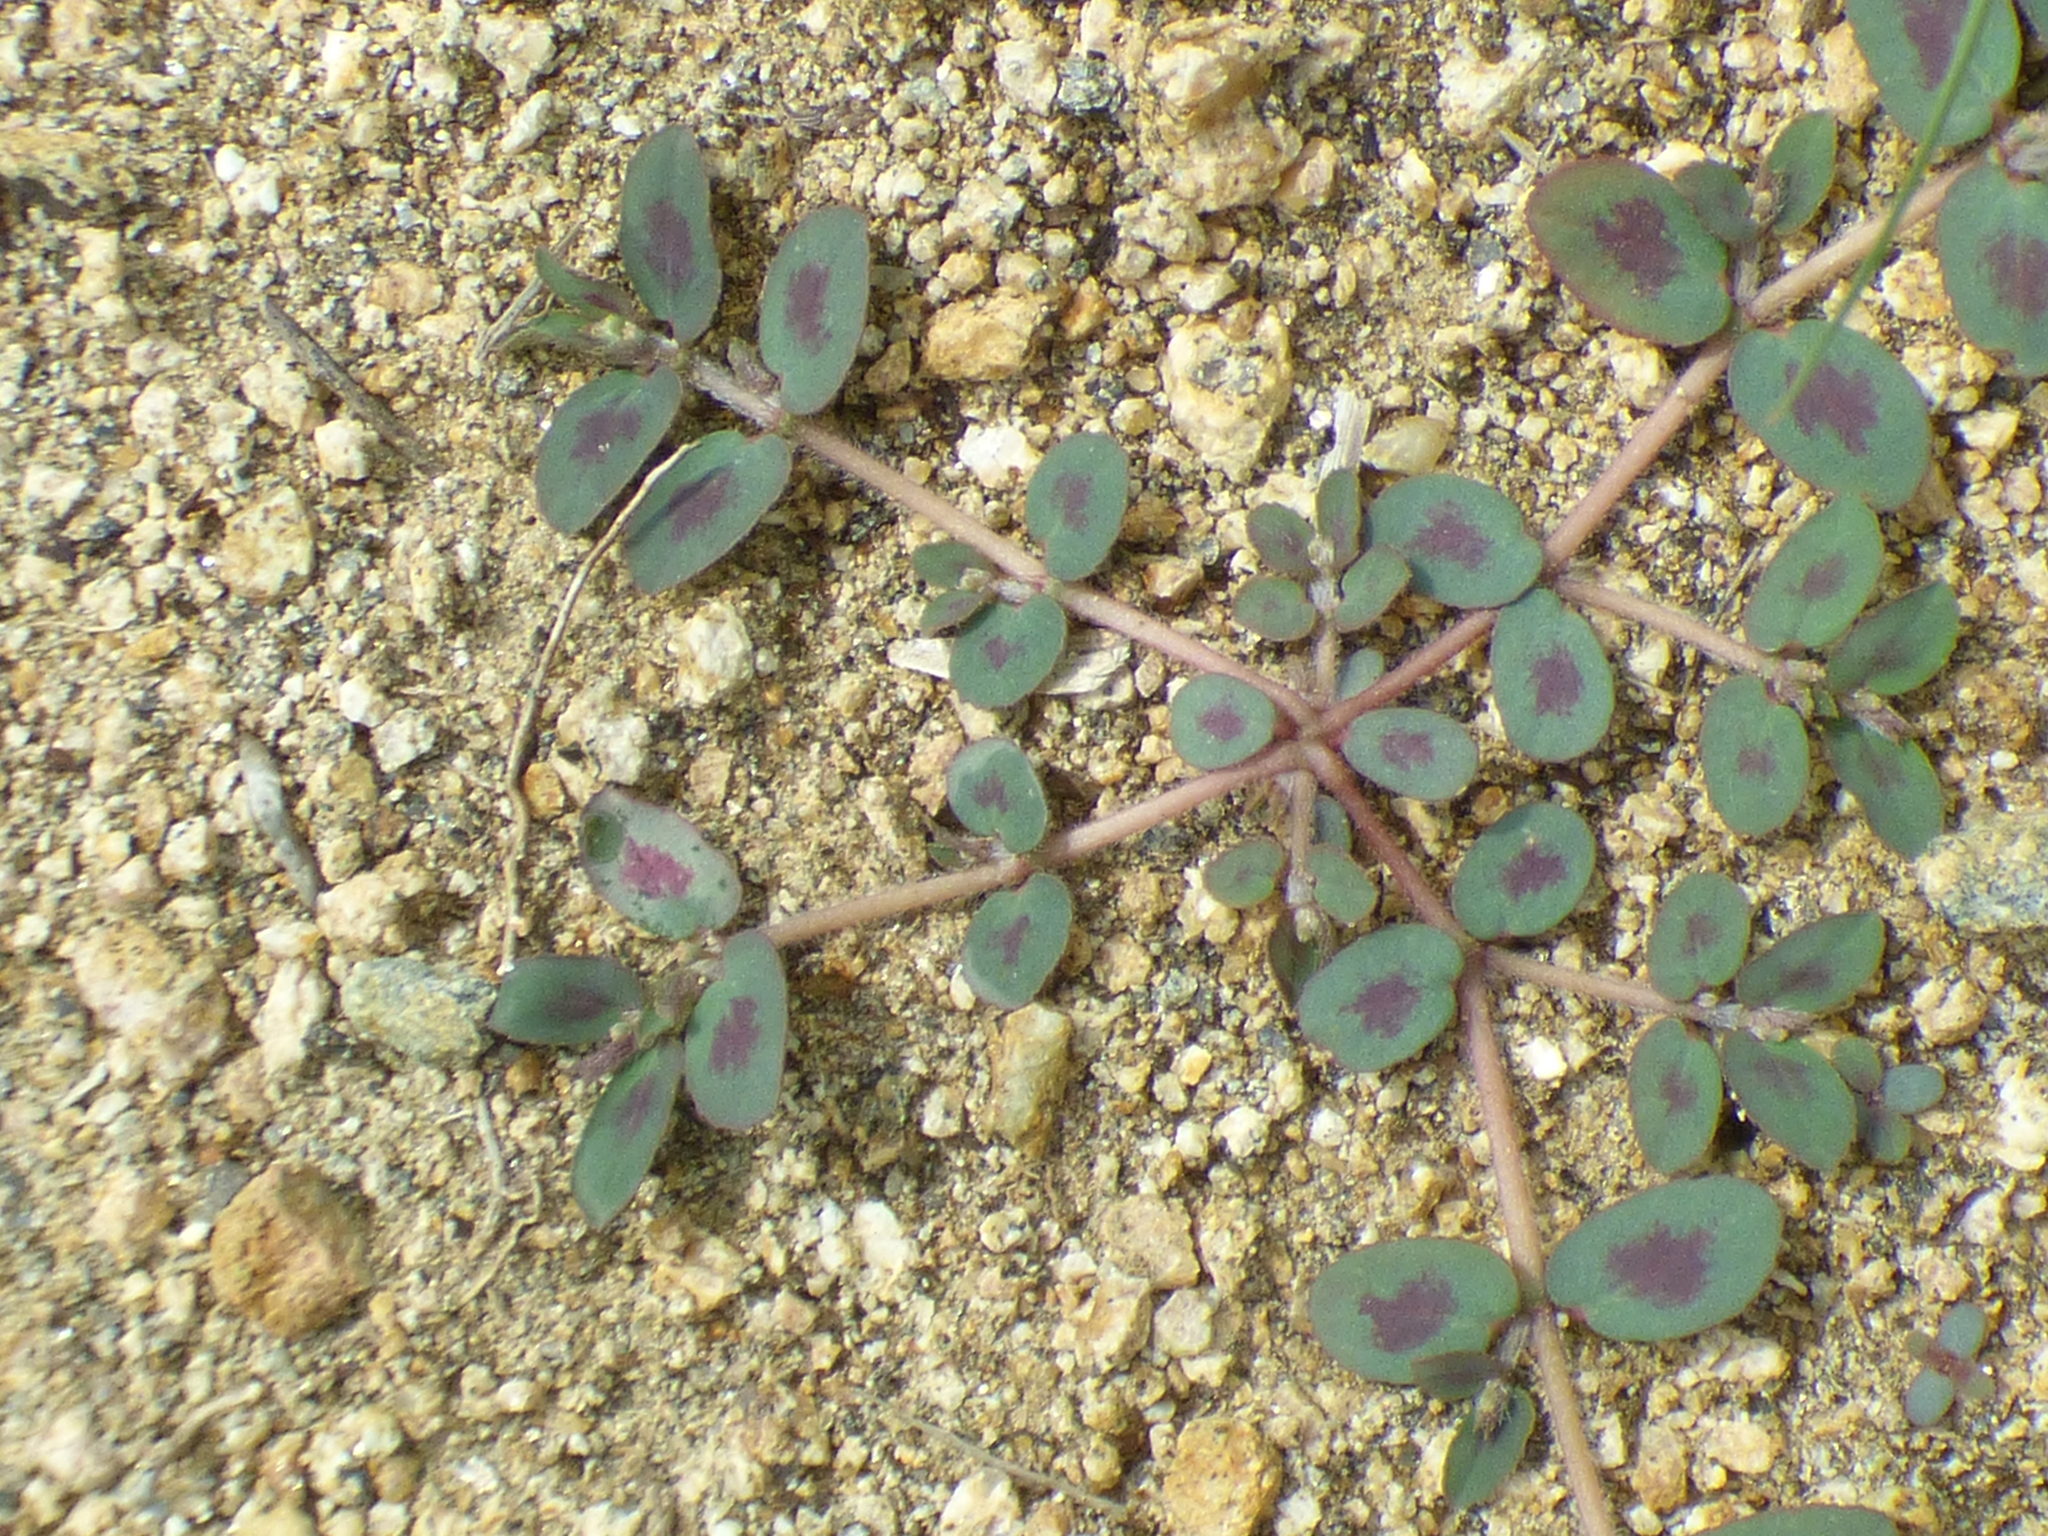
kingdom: Plantae
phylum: Tracheophyta
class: Magnoliopsida
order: Malpighiales
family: Euphorbiaceae
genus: Euphorbia
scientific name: Euphorbia maculata
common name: Spotted spurge
